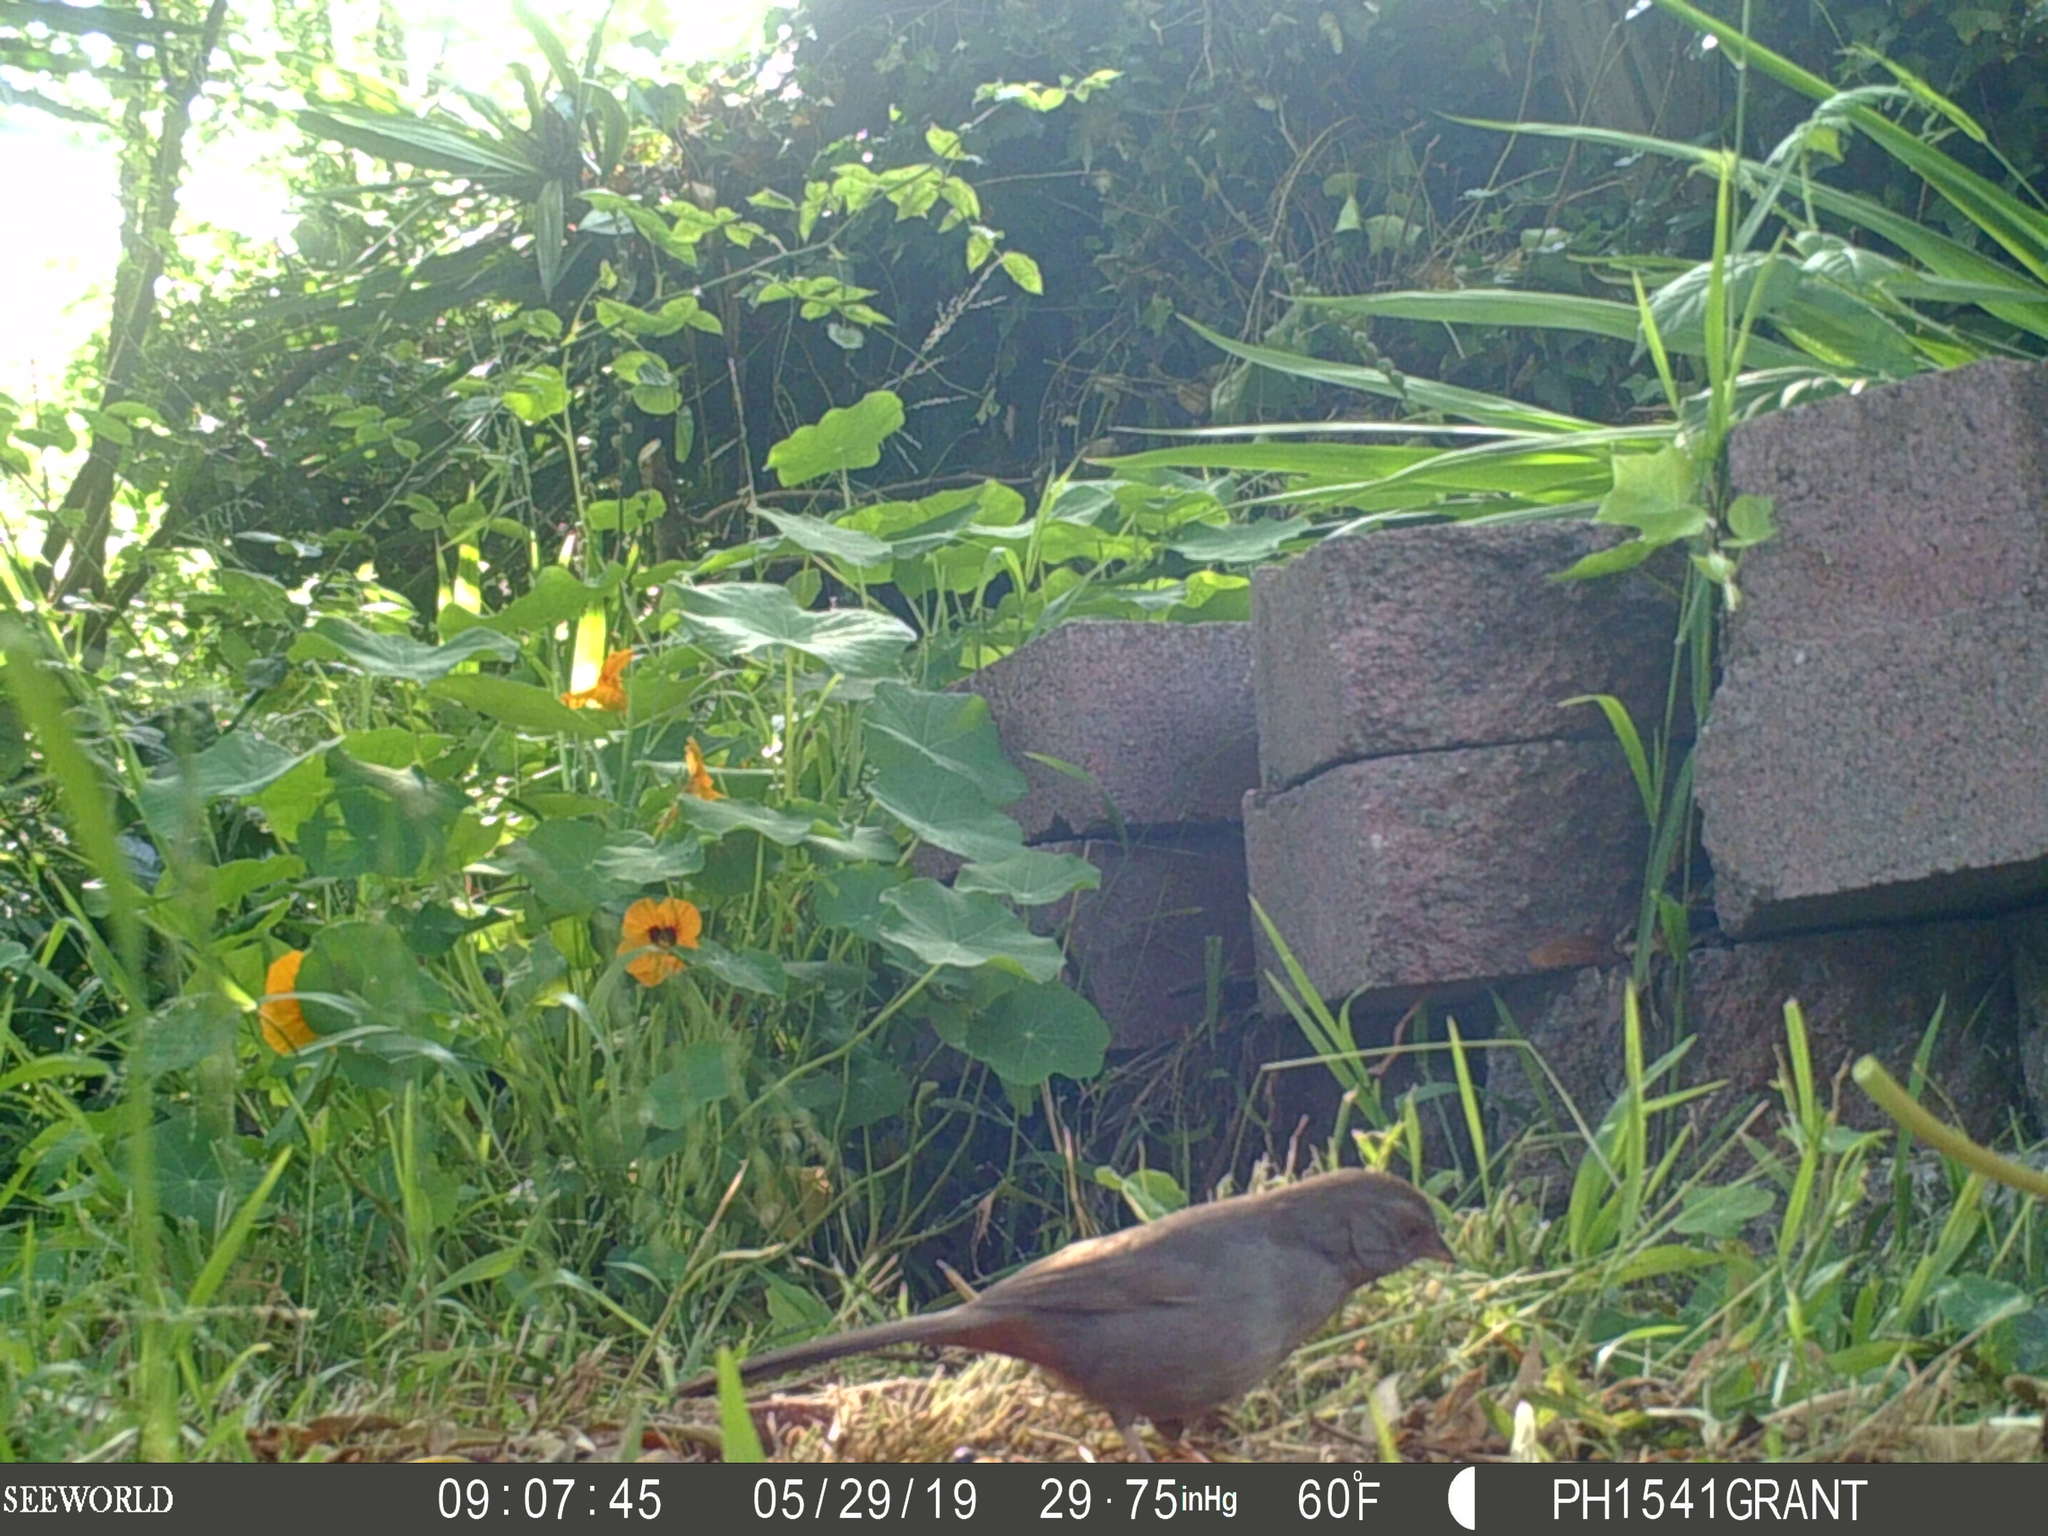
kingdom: Animalia
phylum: Chordata
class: Aves
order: Passeriformes
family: Passerellidae
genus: Melozone
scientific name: Melozone crissalis
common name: California towhee
